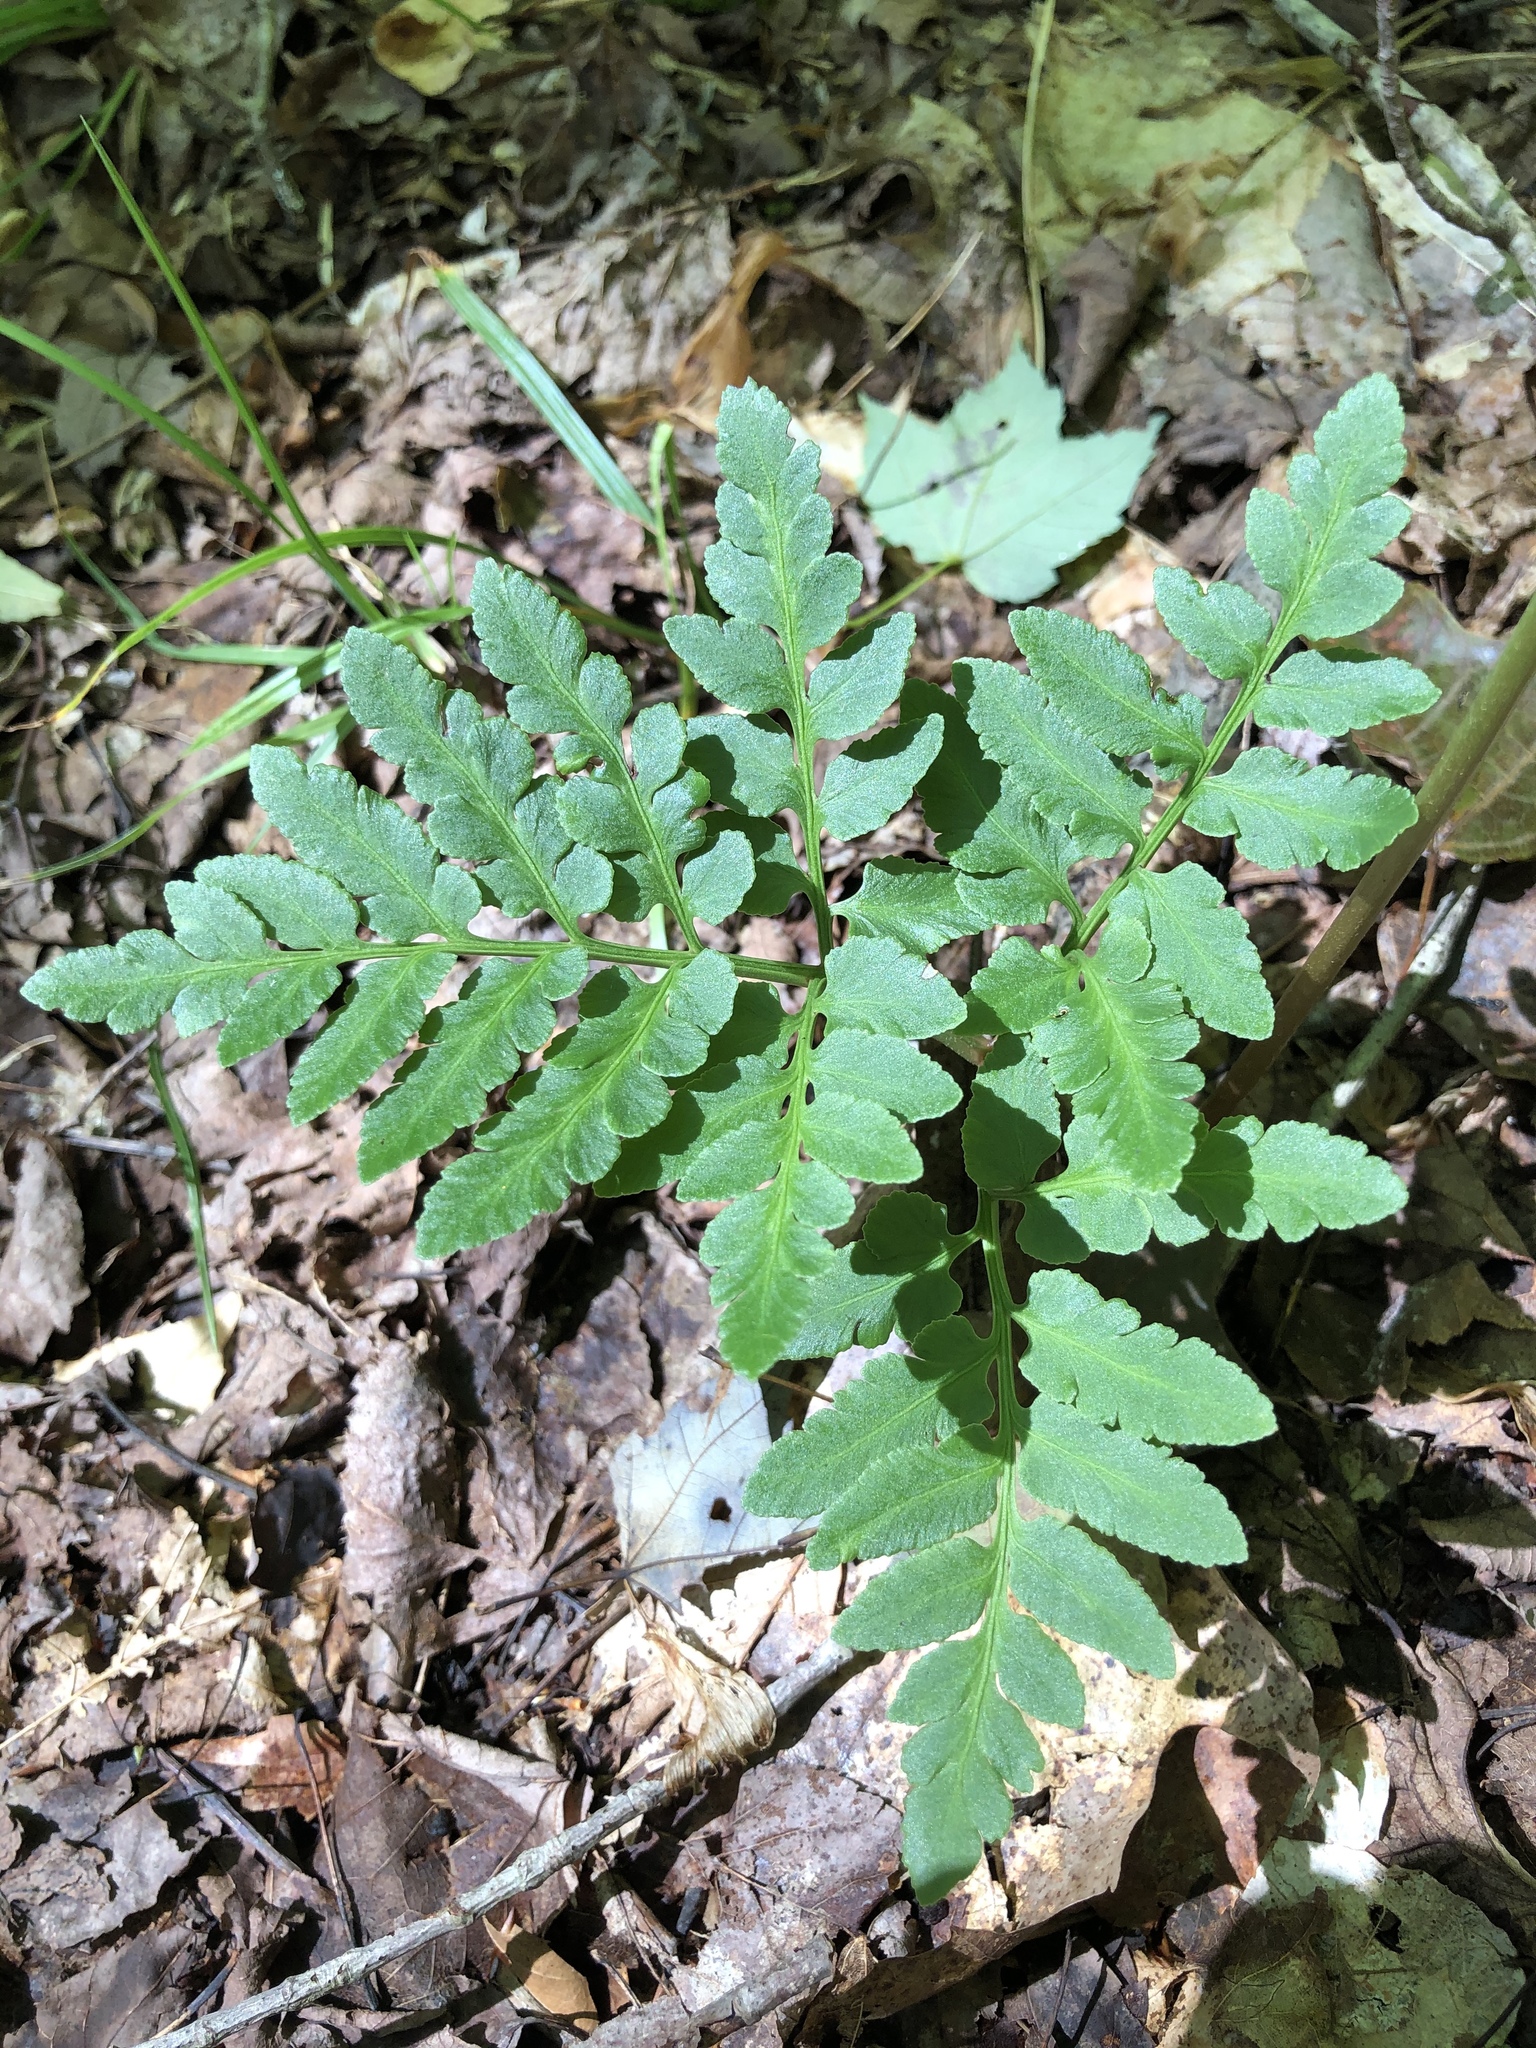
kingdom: Plantae
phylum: Tracheophyta
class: Polypodiopsida
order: Ophioglossales
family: Ophioglossaceae
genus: Sceptridium
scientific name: Sceptridium oneidense
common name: Blunt-lobed grapefern
